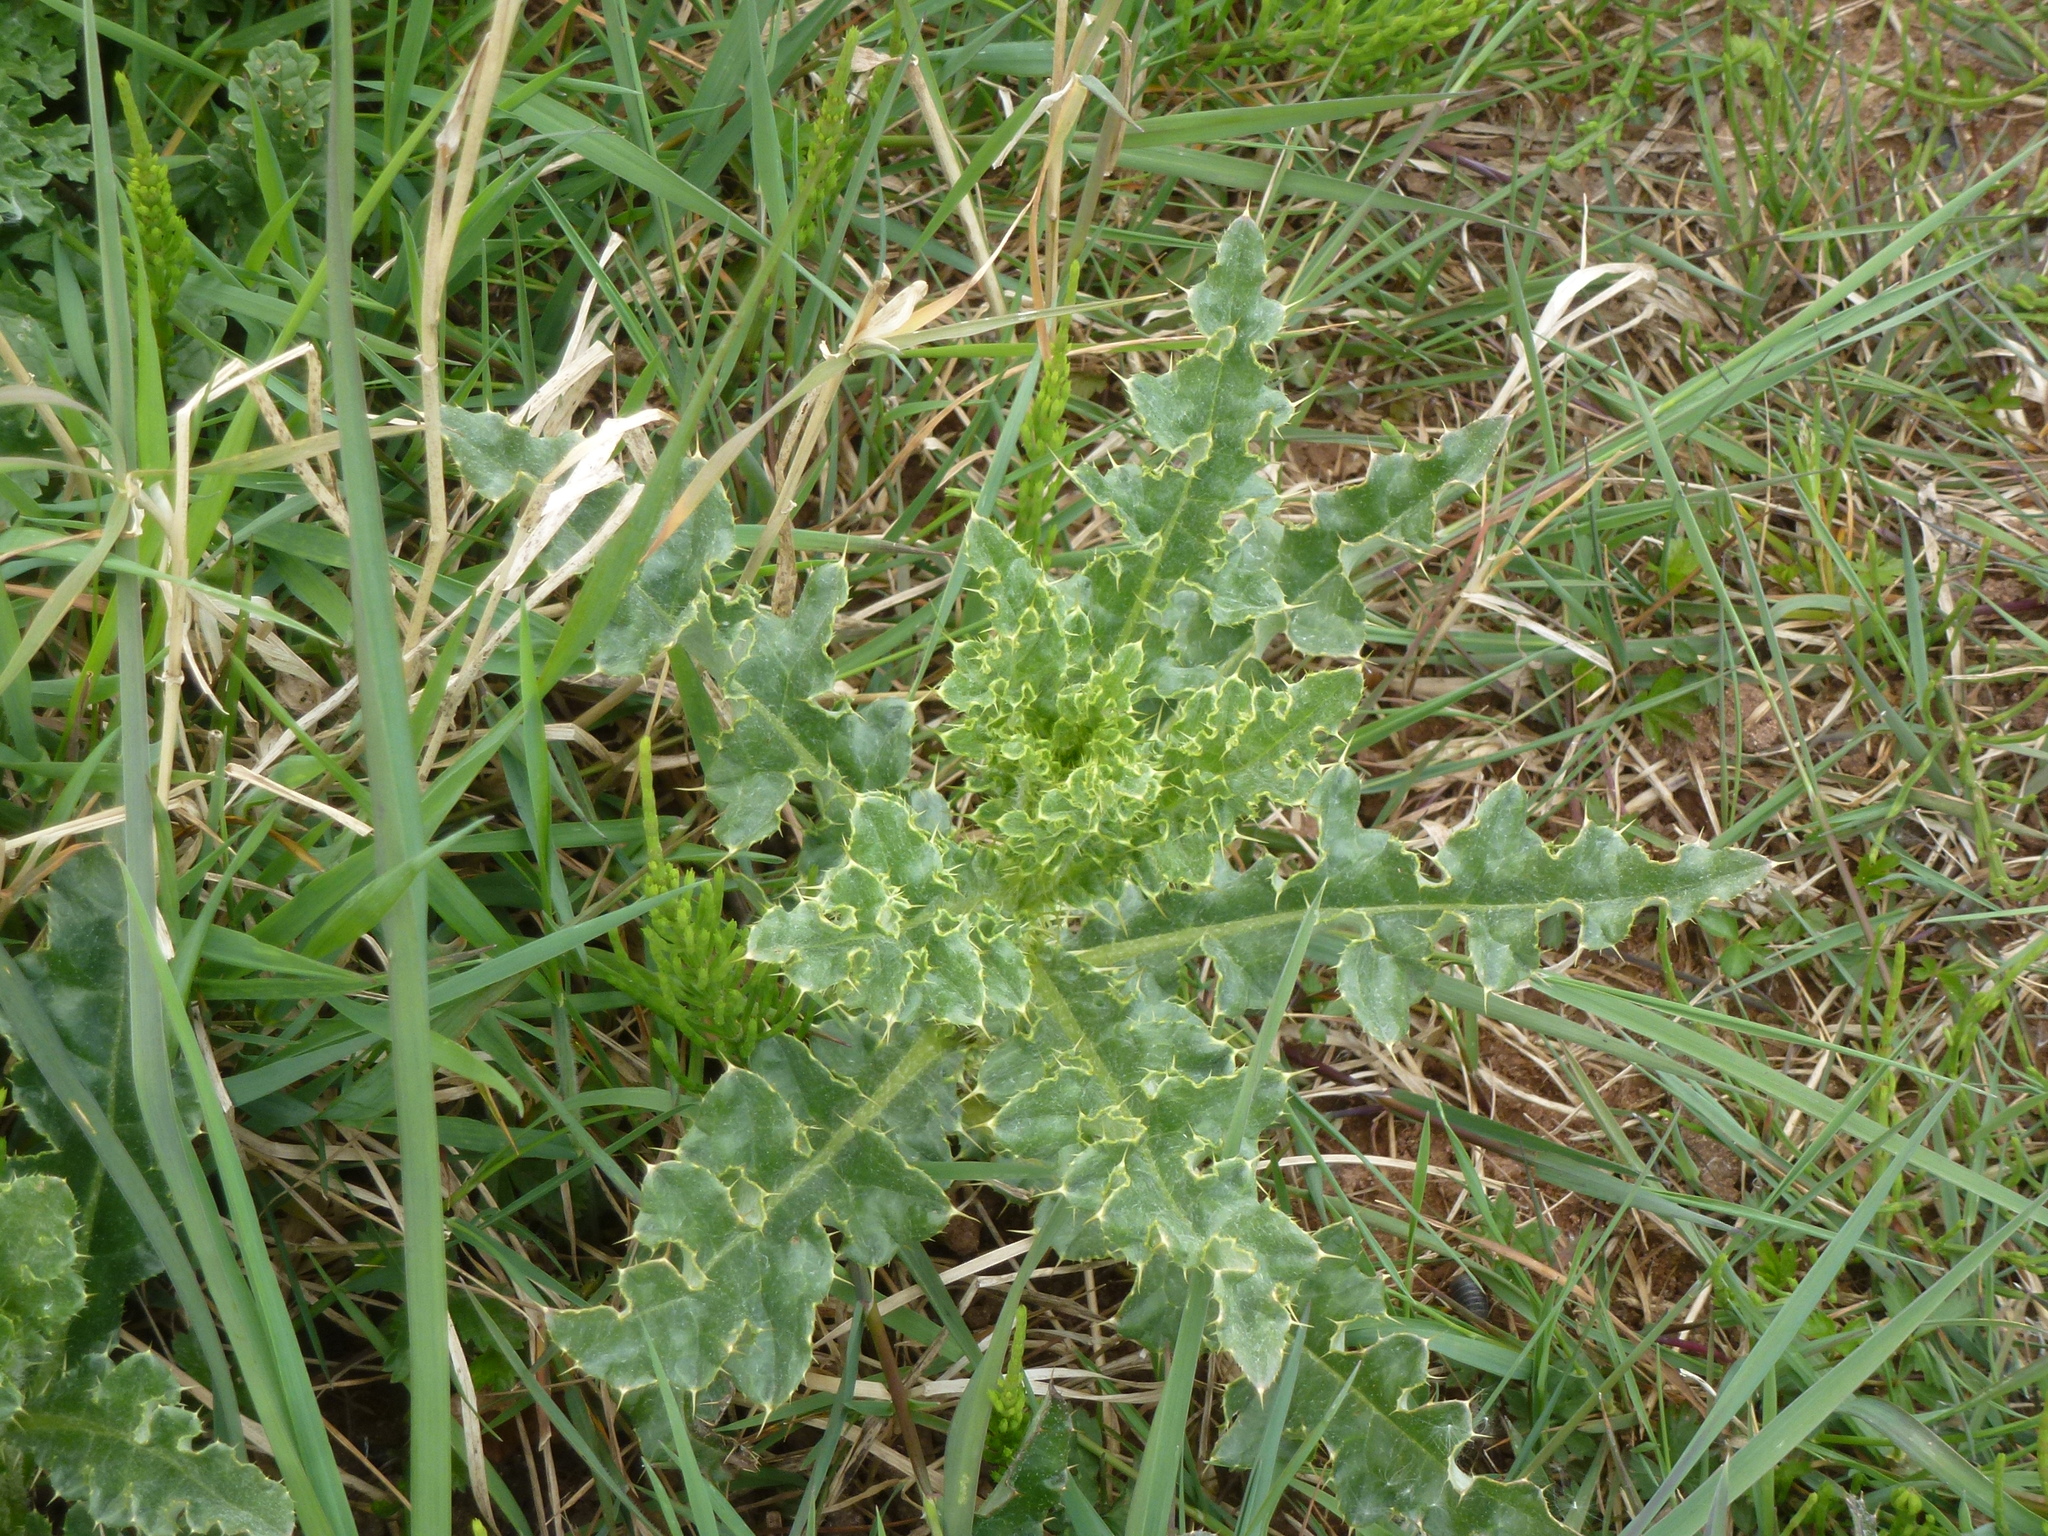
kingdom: Plantae
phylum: Tracheophyta
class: Magnoliopsida
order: Asterales
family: Asteraceae
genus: Cirsium
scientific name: Cirsium arvense
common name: Creeping thistle
